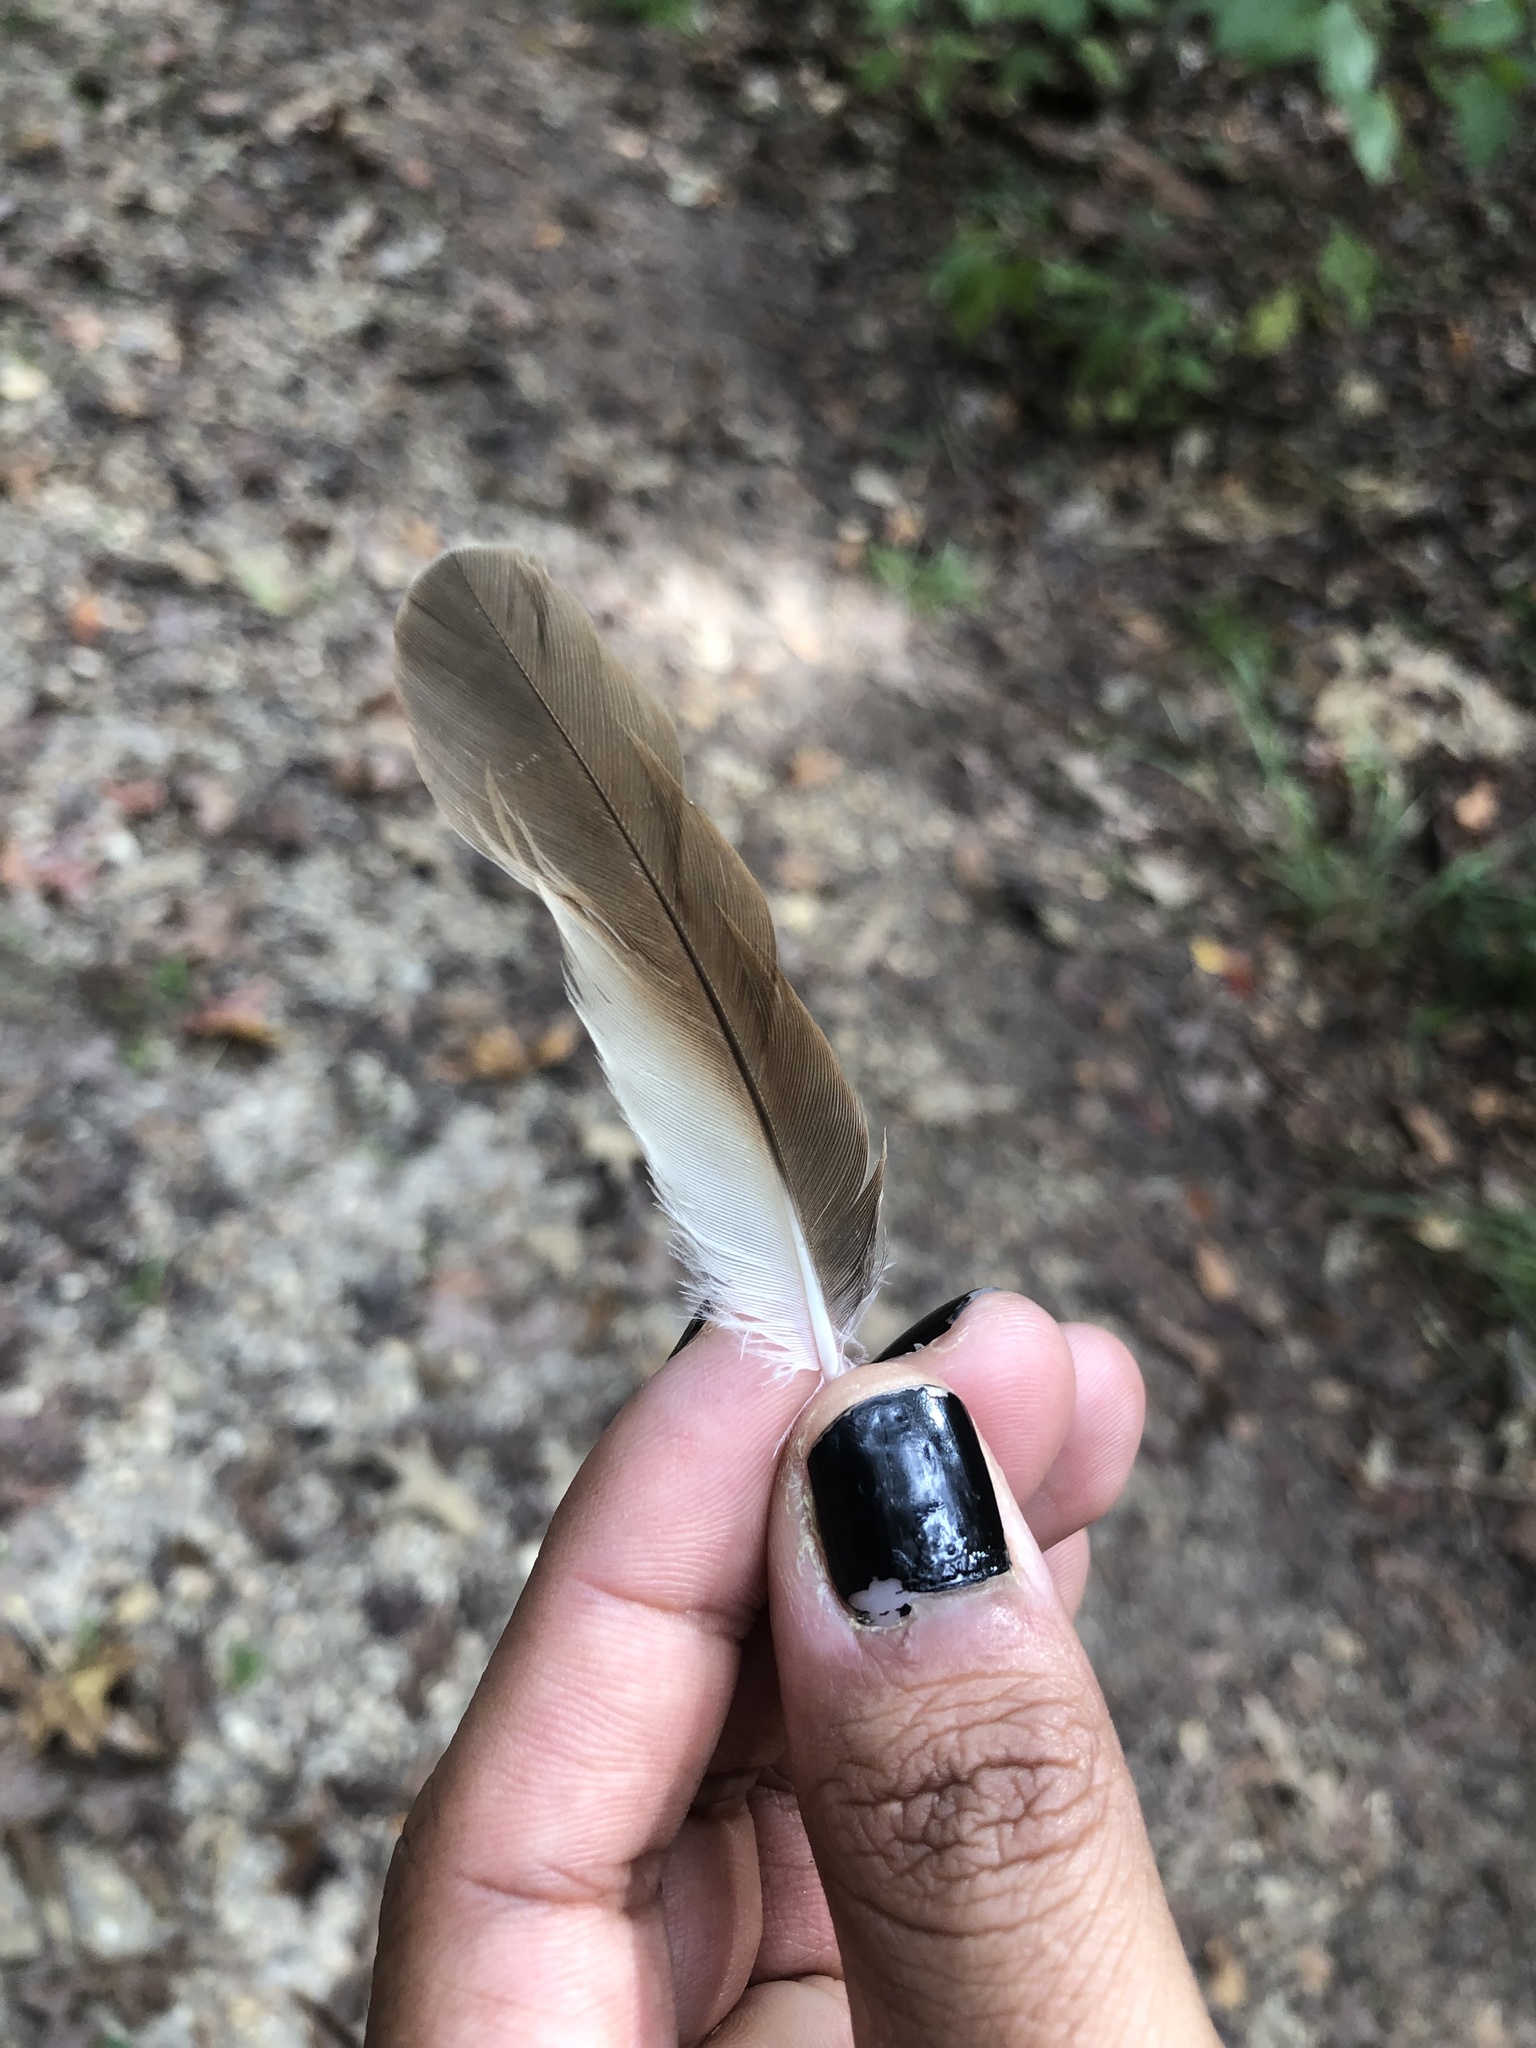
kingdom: Animalia
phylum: Chordata
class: Aves
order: Cuculiformes
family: Cuculidae
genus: Coccyzus
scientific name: Coccyzus americanus
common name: Yellow-billed cuckoo
